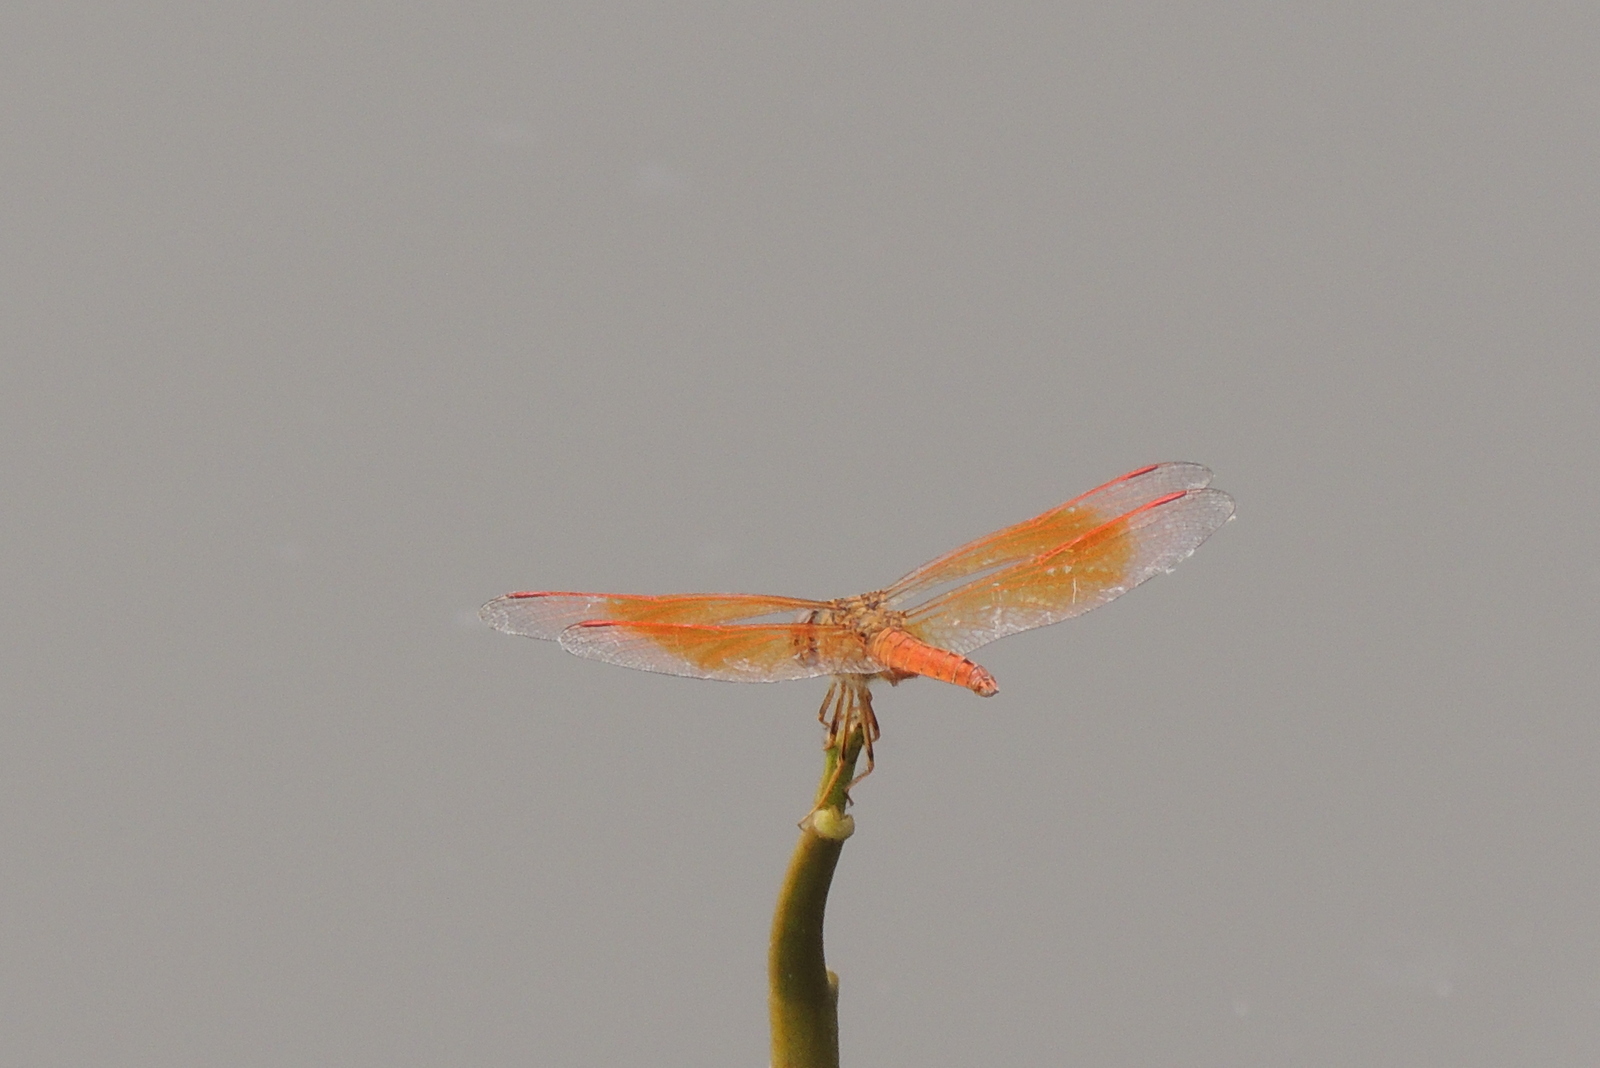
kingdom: Animalia
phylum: Arthropoda
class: Insecta
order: Odonata
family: Libellulidae
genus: Brachythemis
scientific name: Brachythemis contaminata
